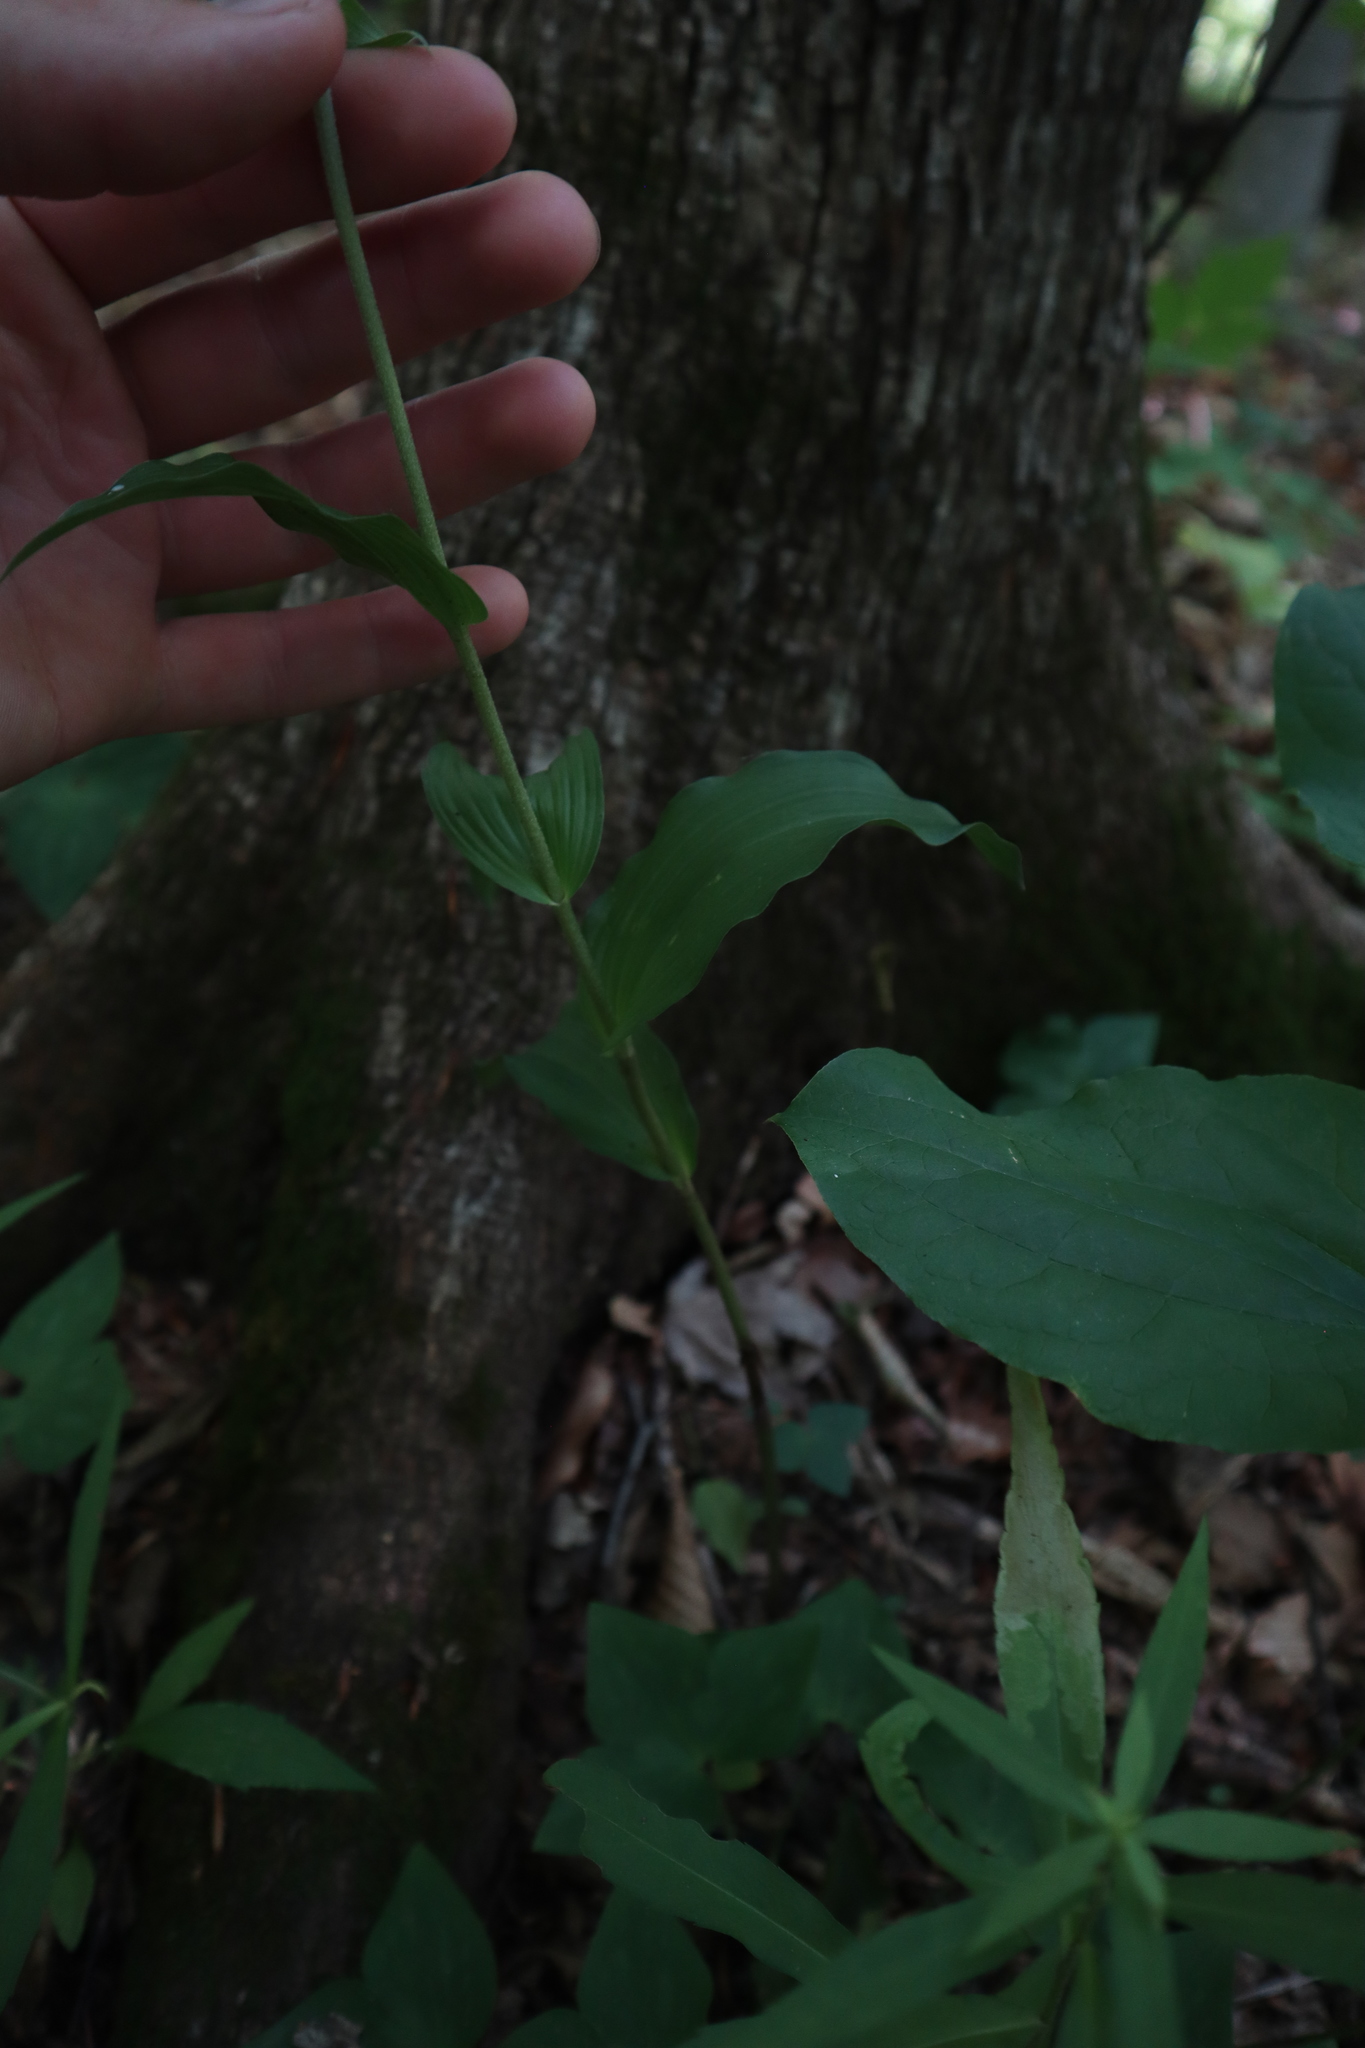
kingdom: Plantae
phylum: Tracheophyta
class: Liliopsida
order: Asparagales
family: Orchidaceae
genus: Epipactis
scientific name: Epipactis helleborine
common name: Broad-leaved helleborine
